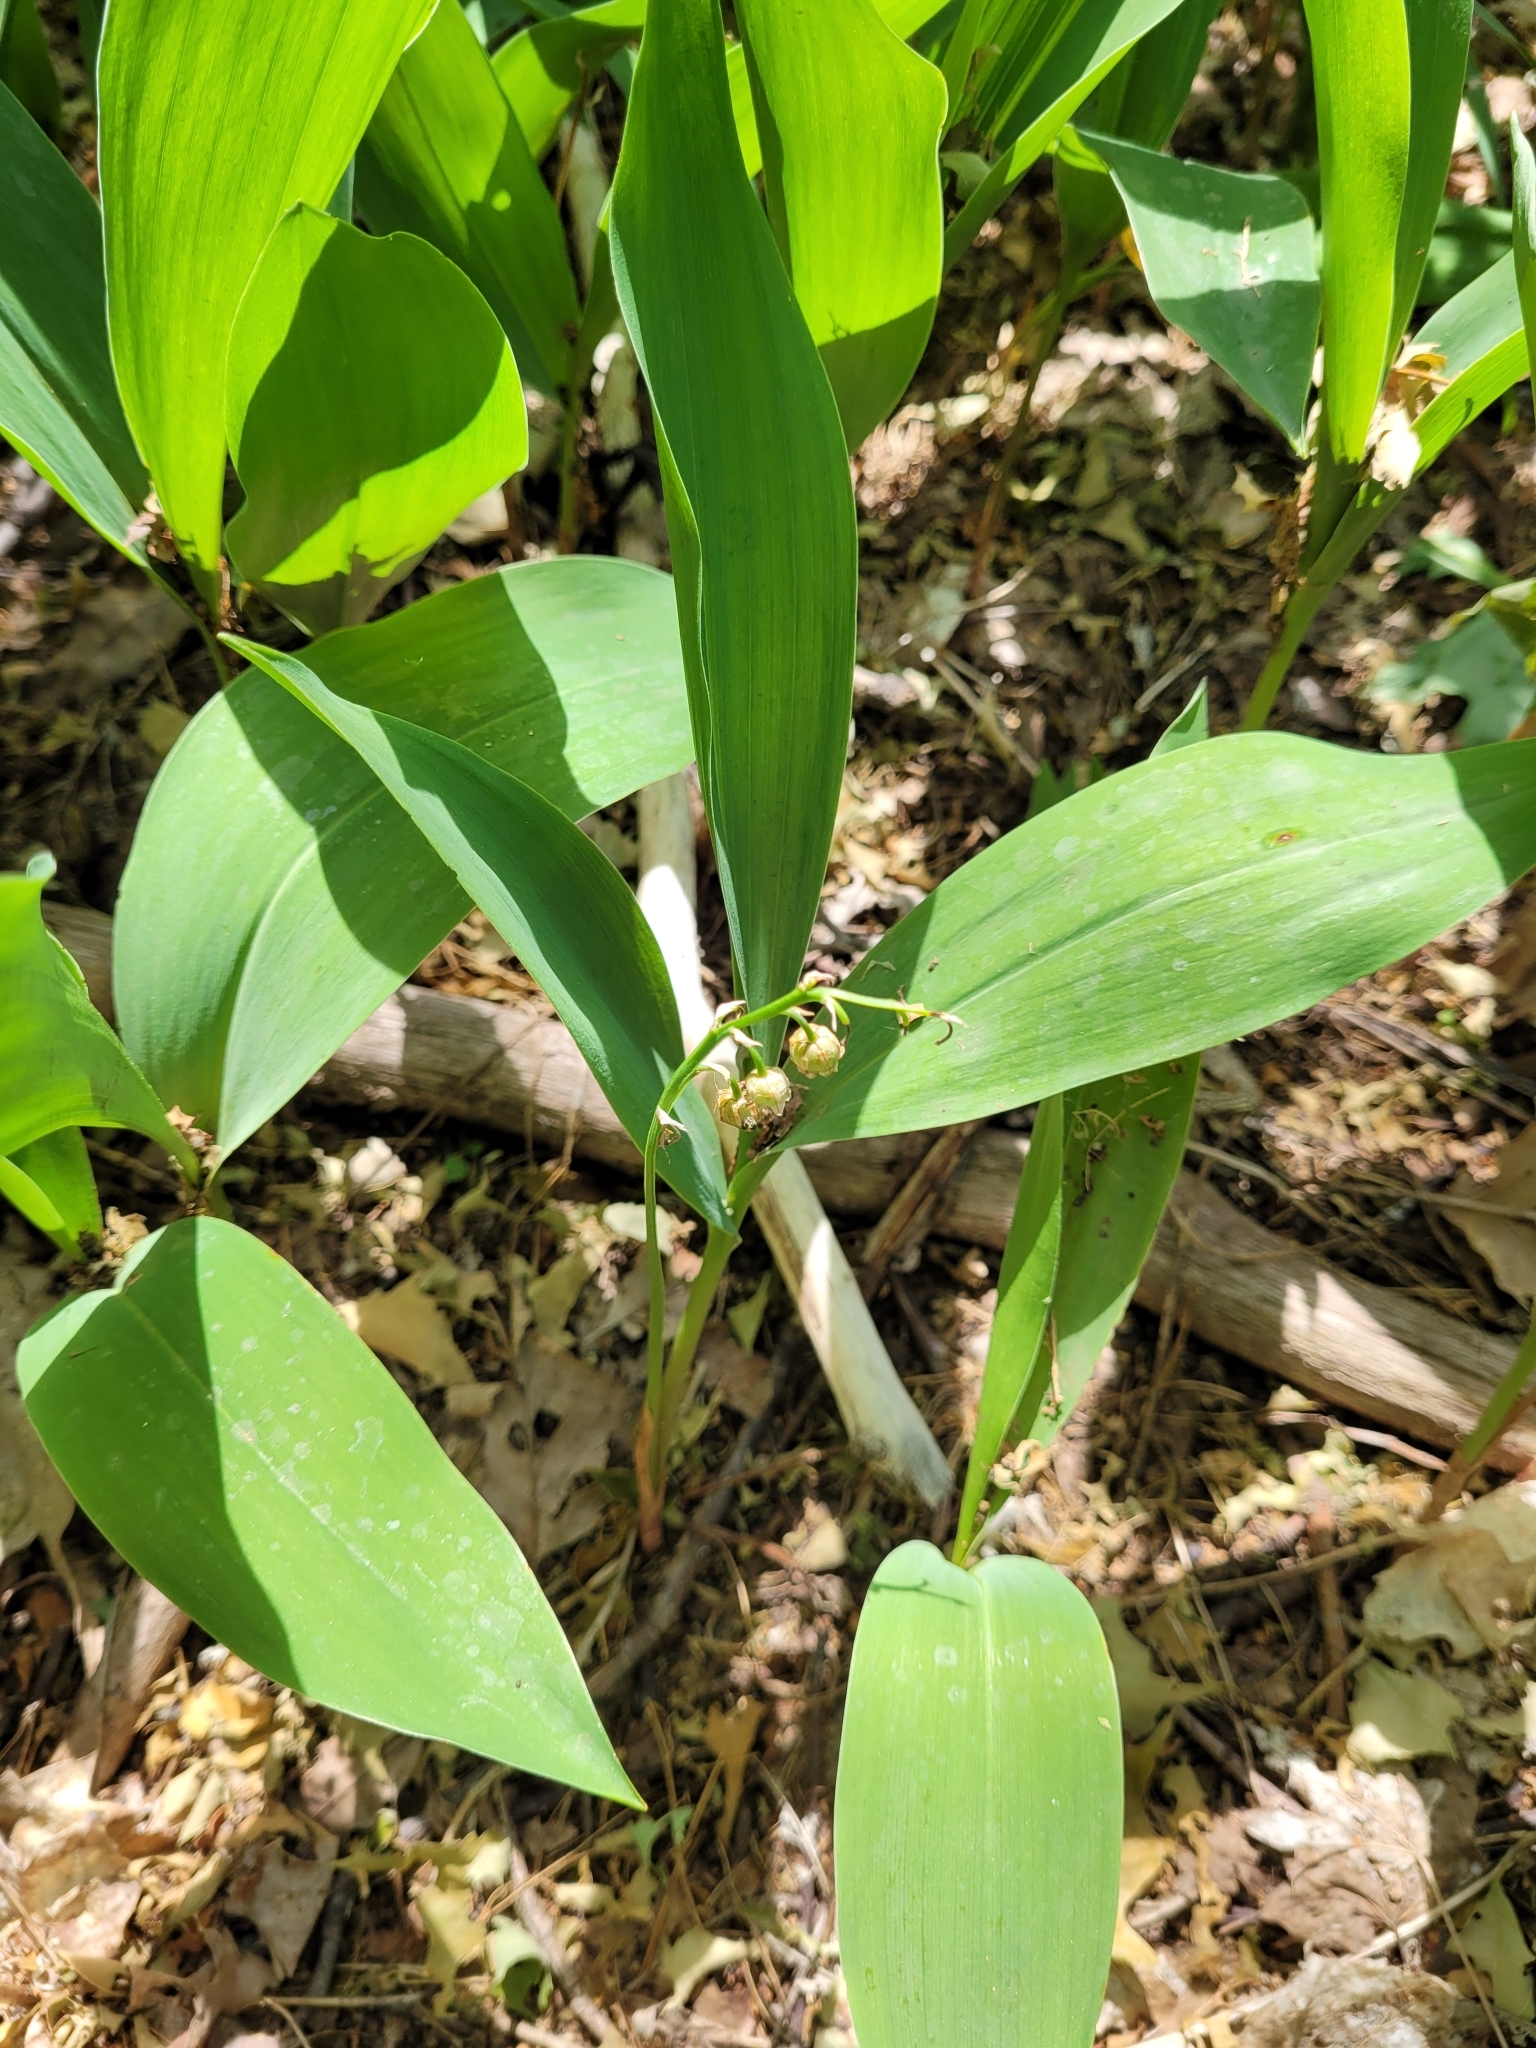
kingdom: Plantae
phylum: Tracheophyta
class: Liliopsida
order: Asparagales
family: Asparagaceae
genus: Convallaria
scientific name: Convallaria majalis
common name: Lily-of-the-valley
